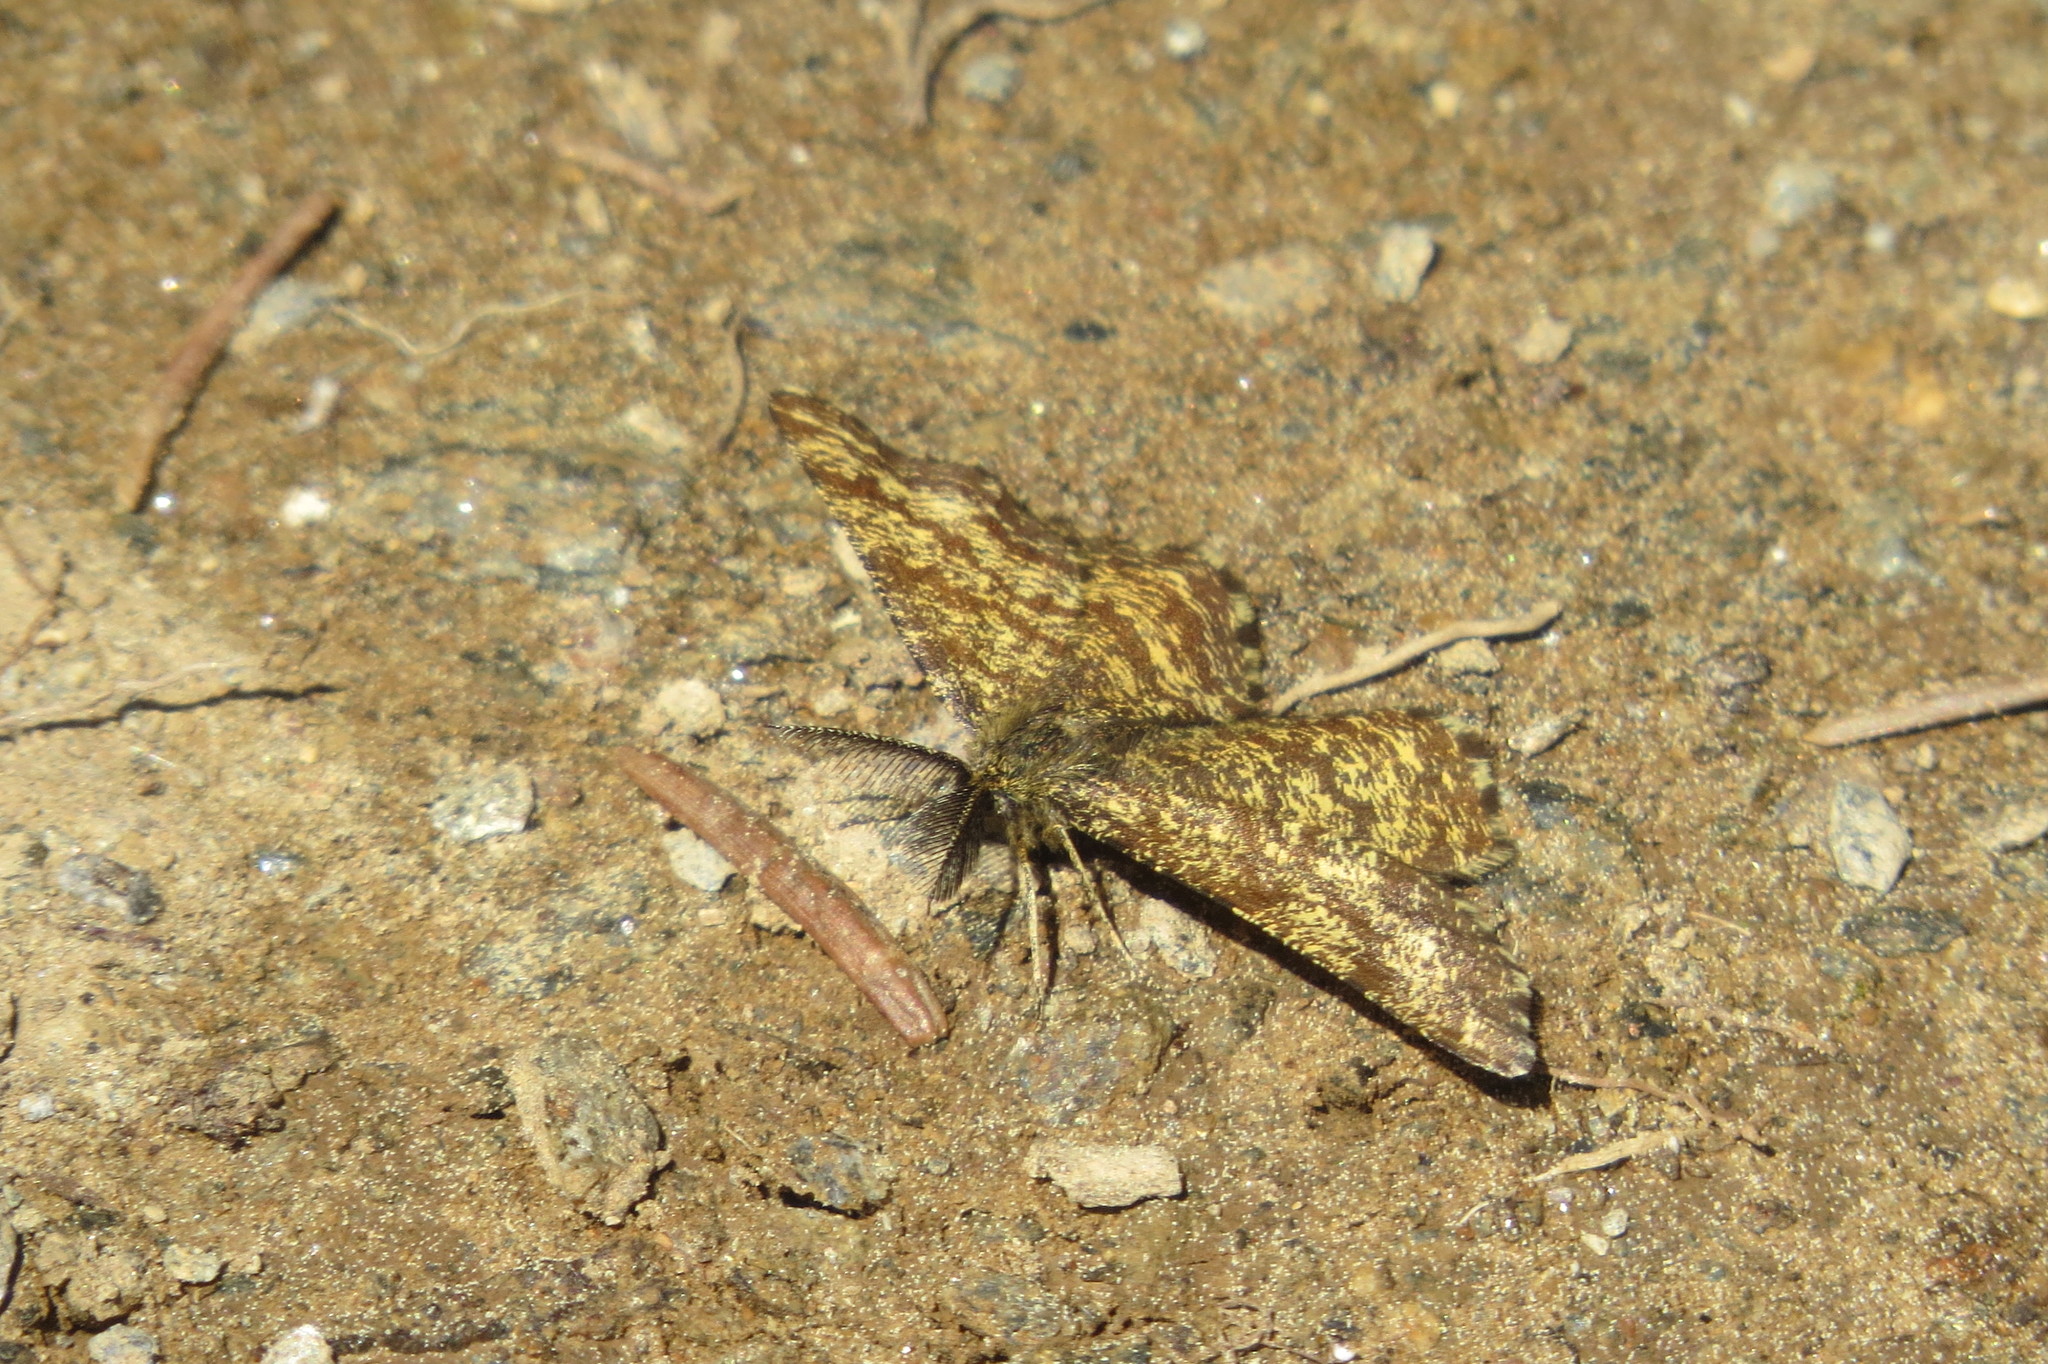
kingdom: Animalia
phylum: Arthropoda
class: Insecta
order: Lepidoptera
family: Geometridae
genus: Ematurga
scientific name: Ematurga atomaria
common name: Common heath
